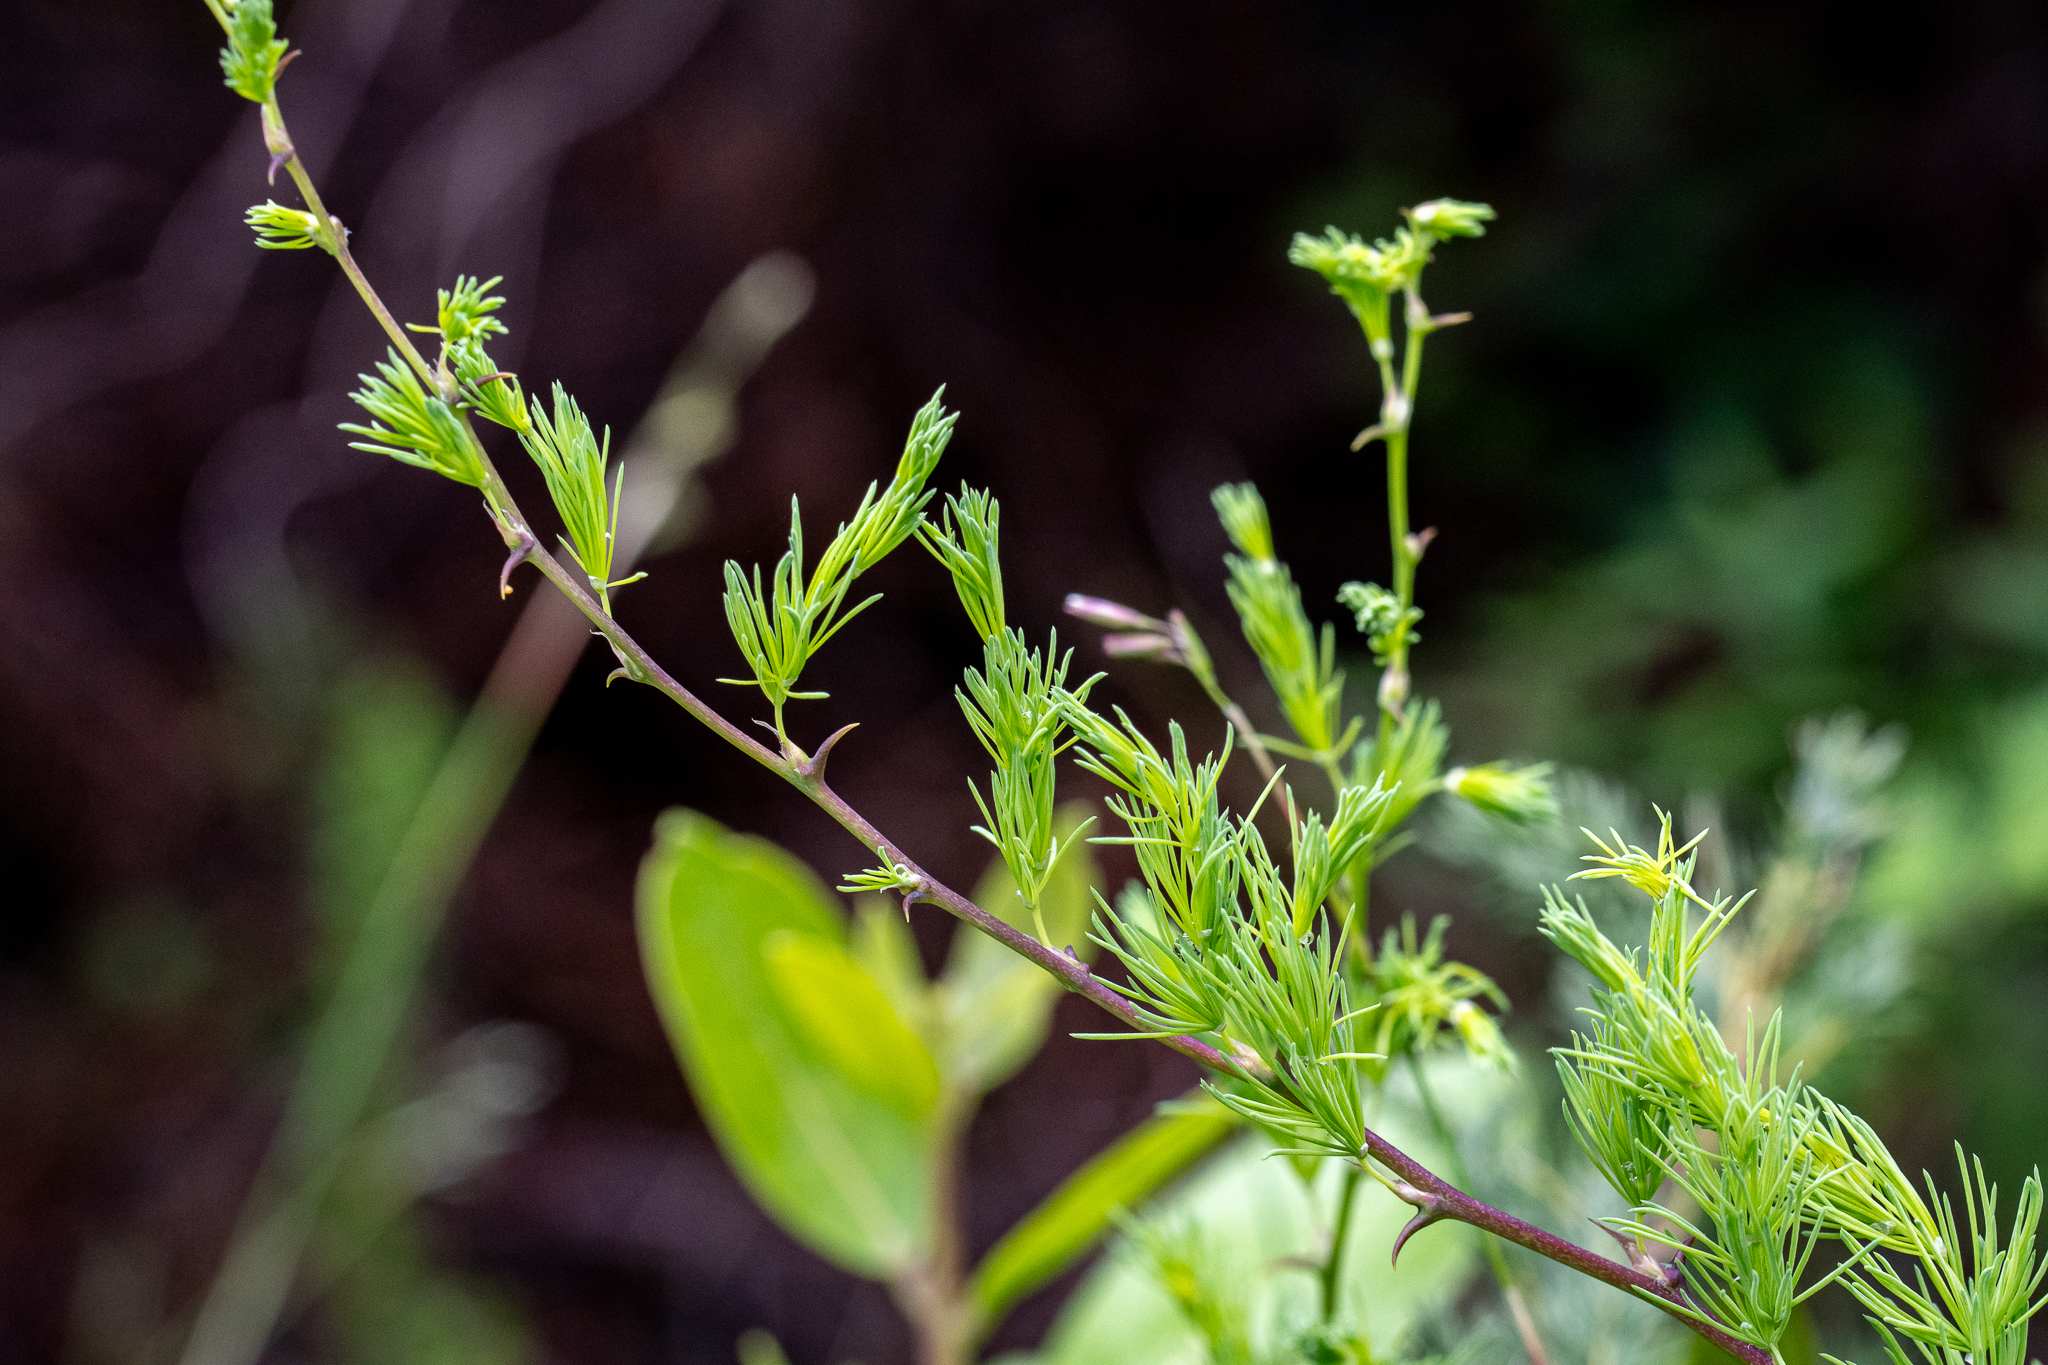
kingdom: Plantae
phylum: Tracheophyta
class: Liliopsida
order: Asparagales
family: Asparagaceae
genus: Asparagus
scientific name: Asparagus rubicundus
